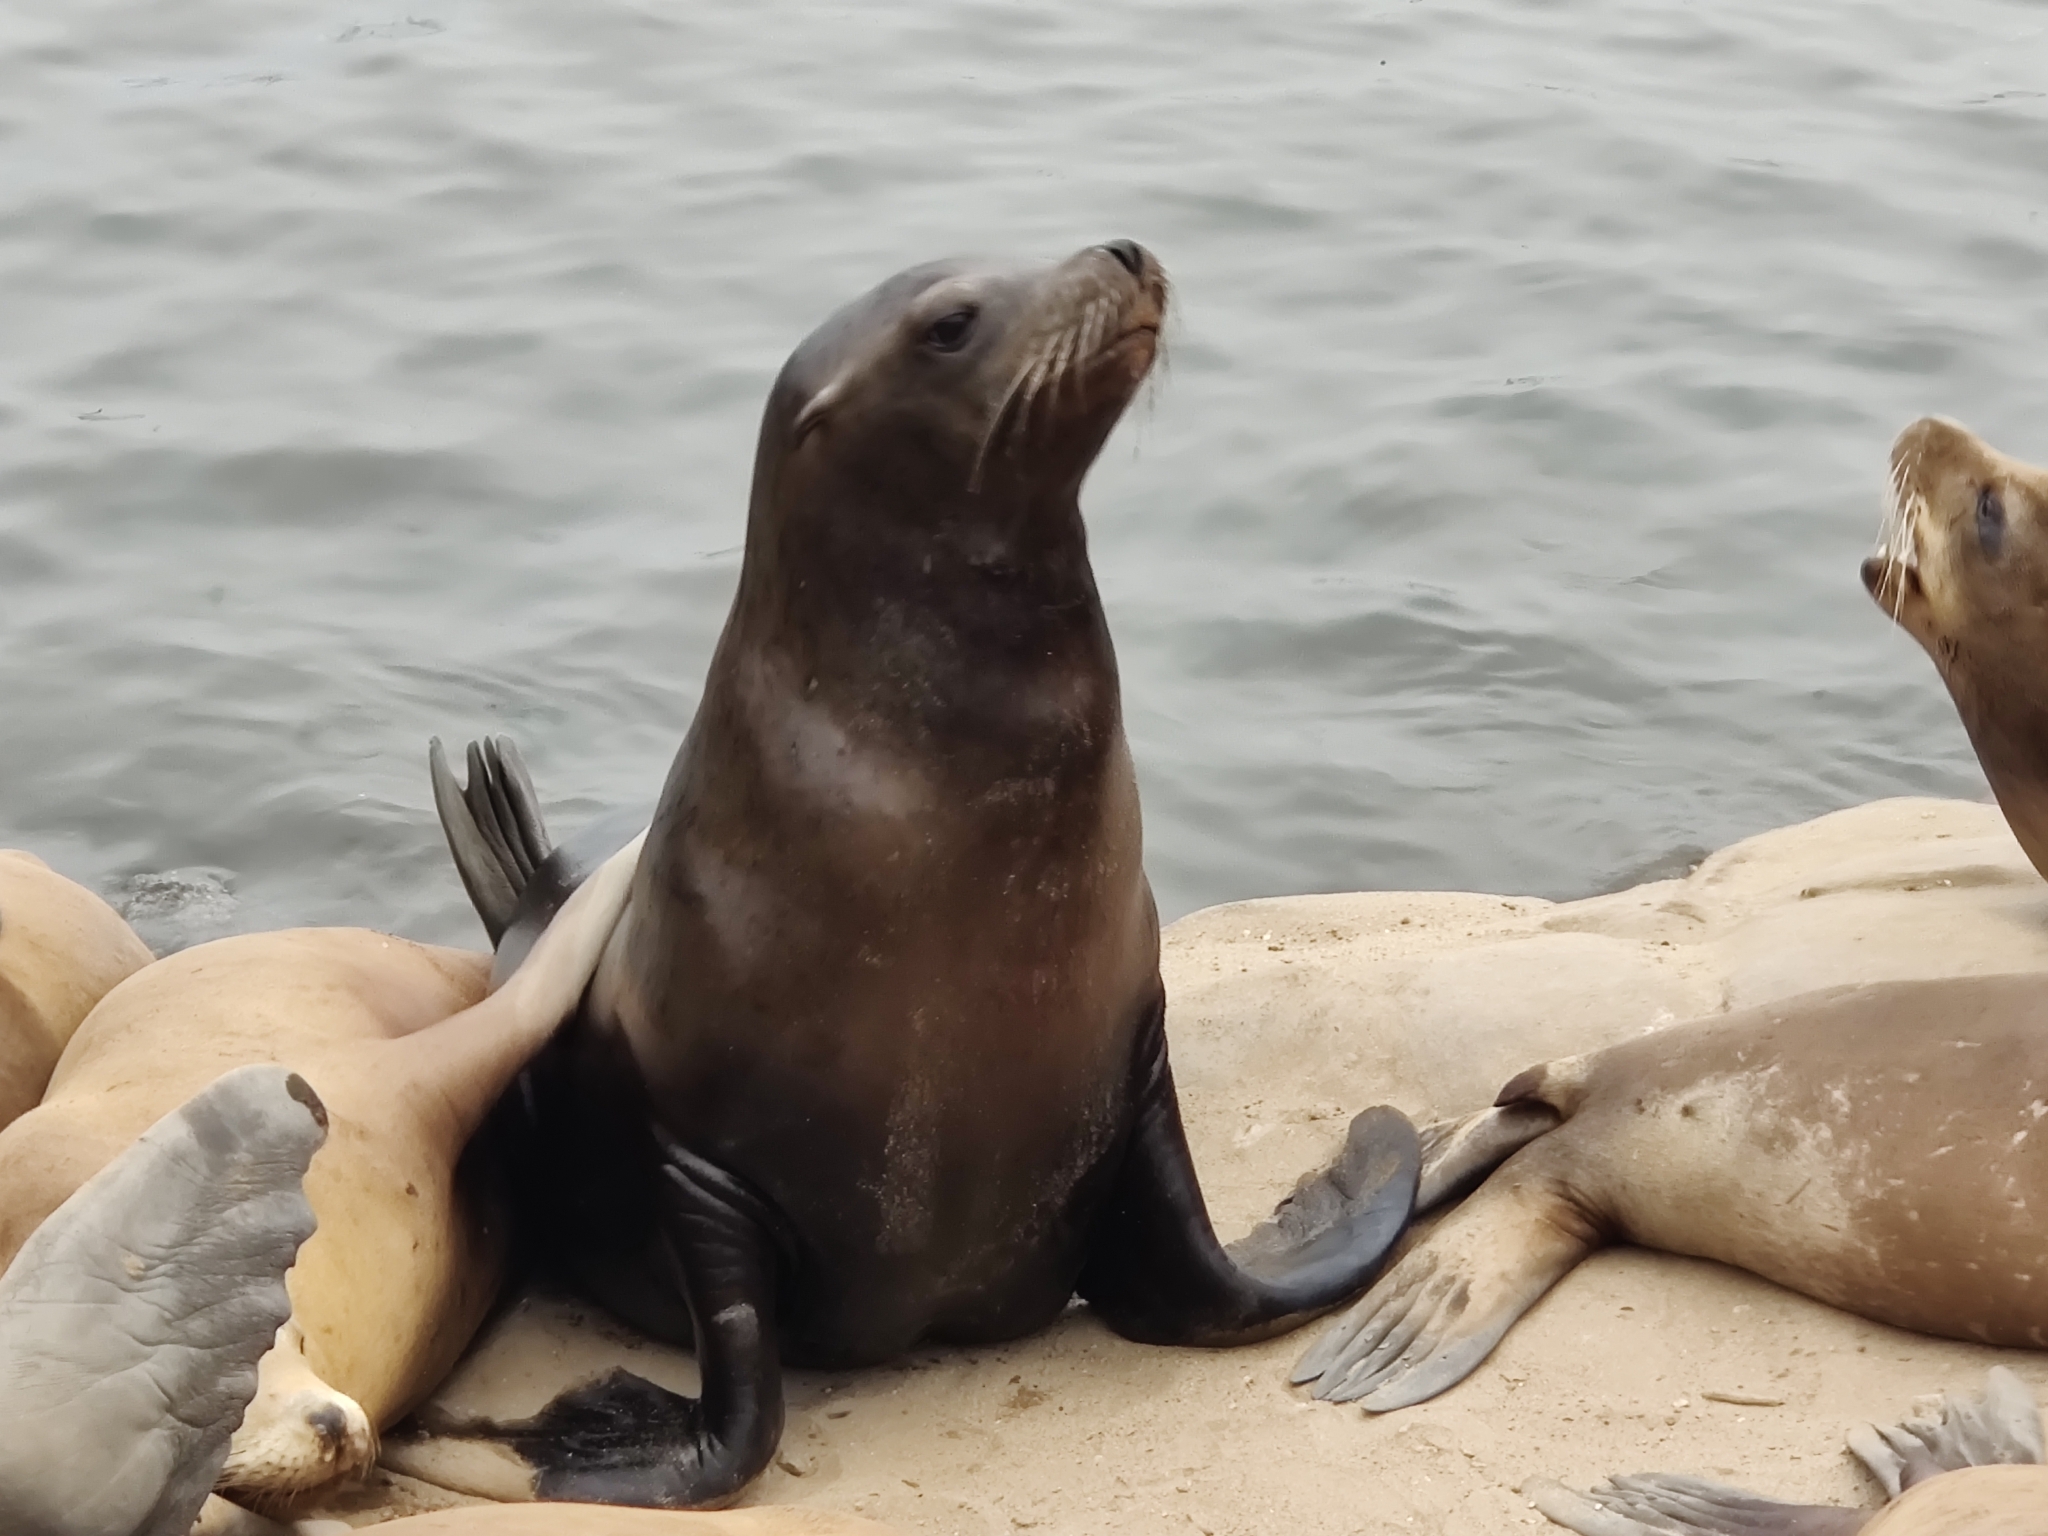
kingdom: Animalia
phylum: Chordata
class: Mammalia
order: Carnivora
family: Otariidae
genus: Zalophus
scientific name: Zalophus californianus
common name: California sea lion
